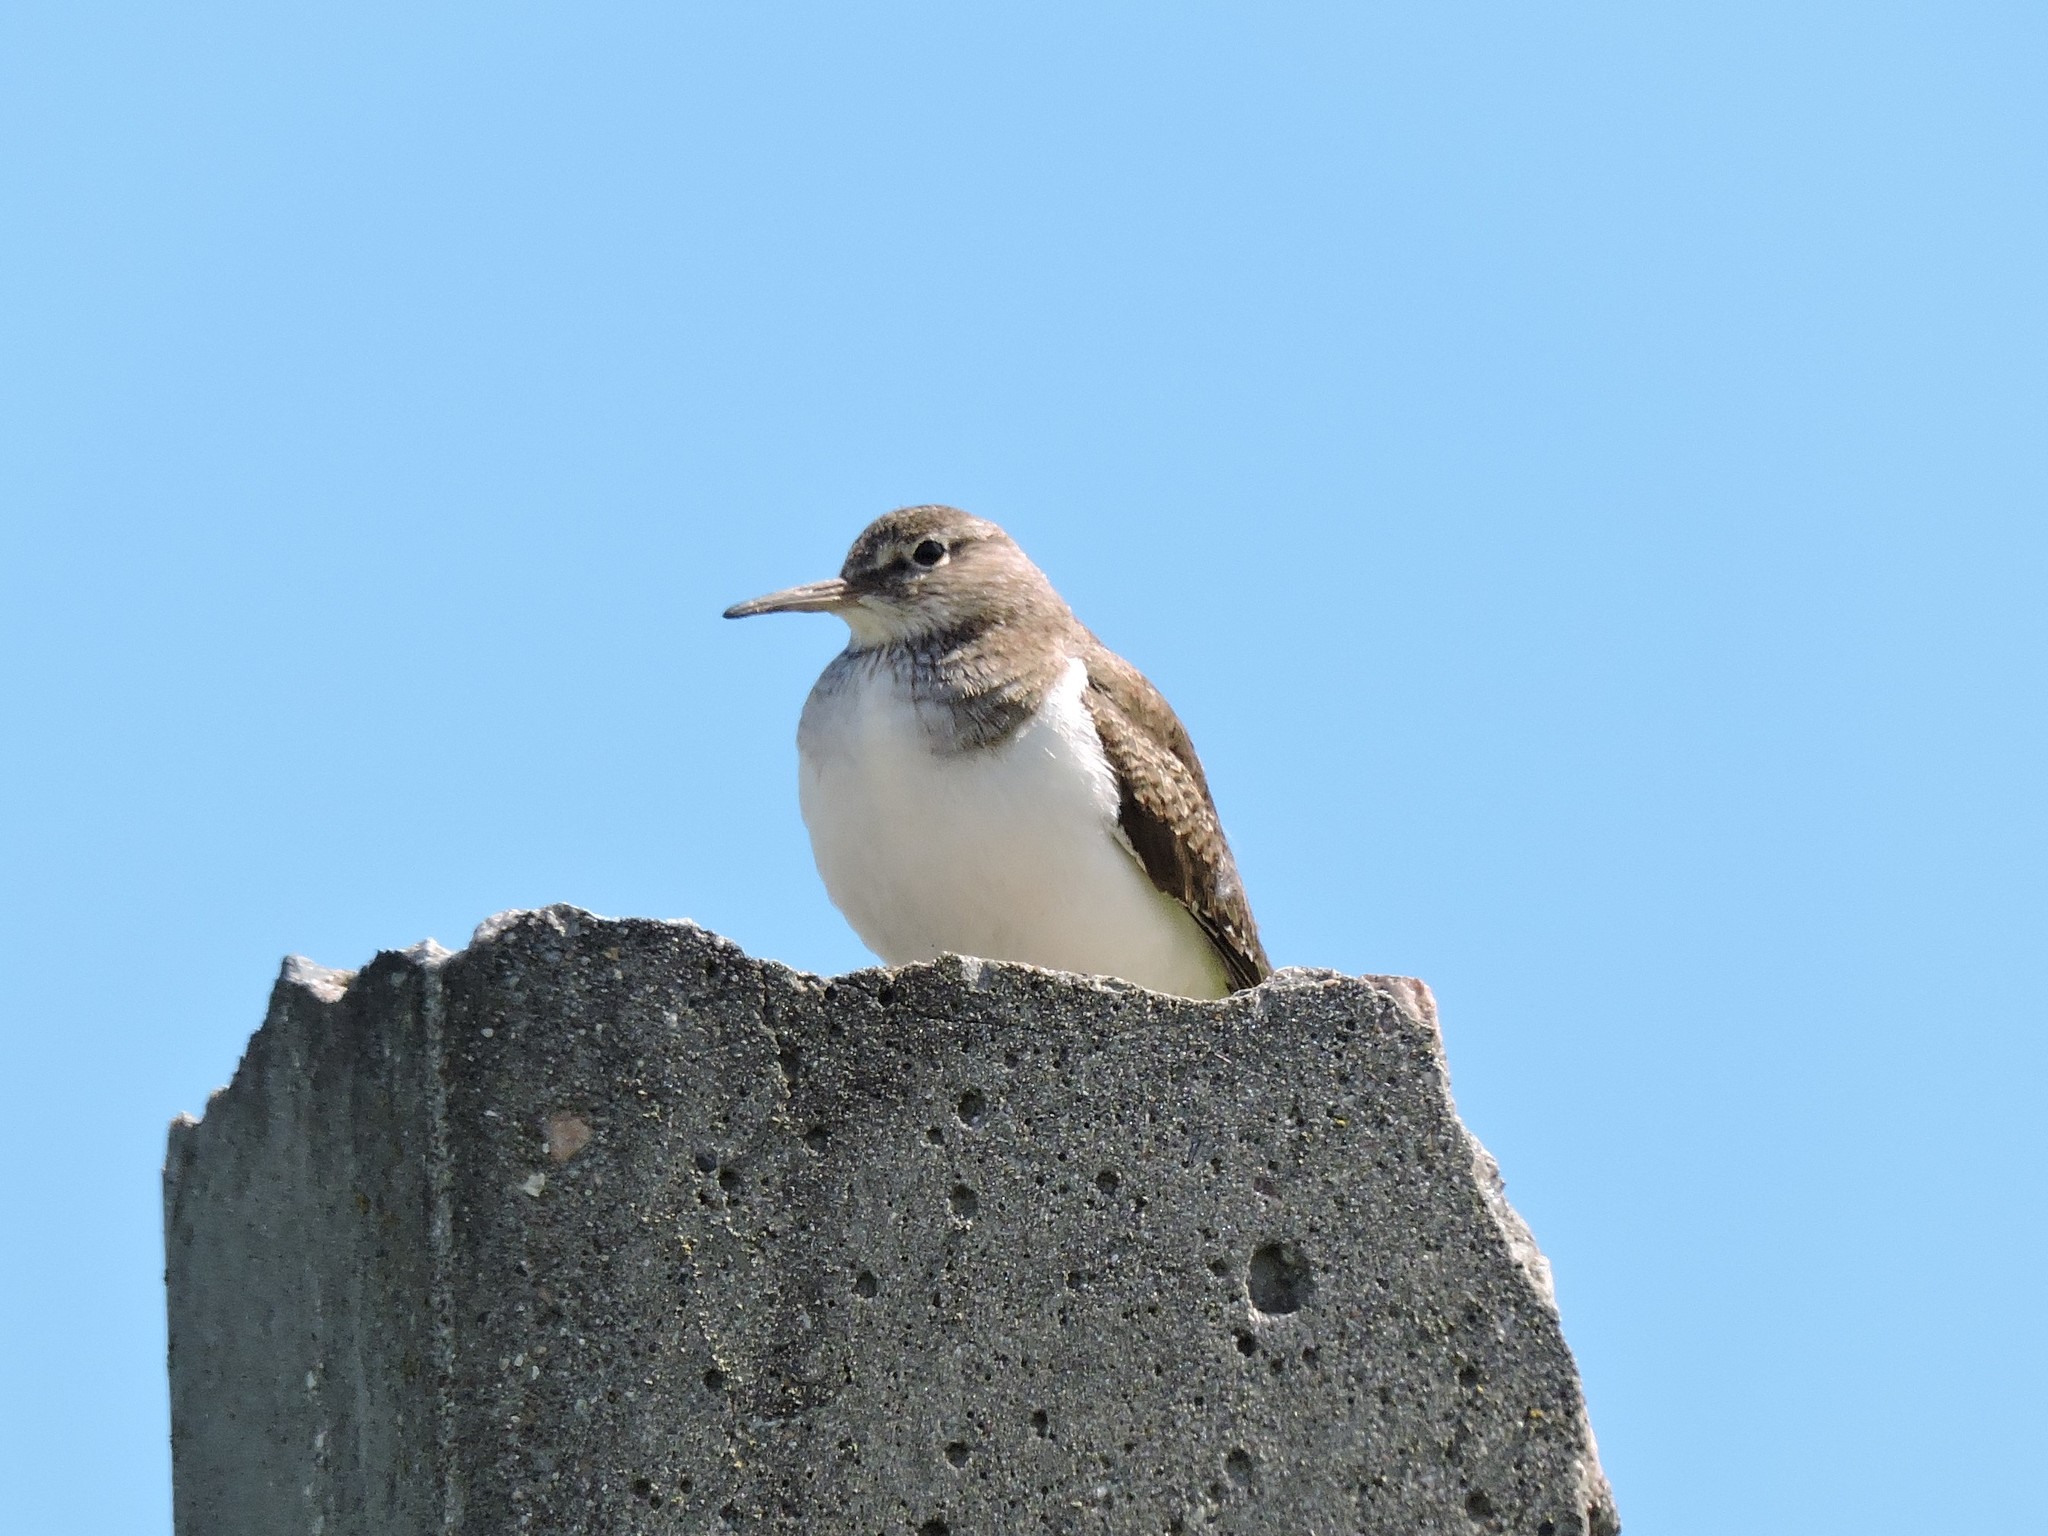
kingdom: Animalia
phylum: Chordata
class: Aves
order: Charadriiformes
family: Scolopacidae
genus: Actitis
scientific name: Actitis hypoleucos
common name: Common sandpiper
